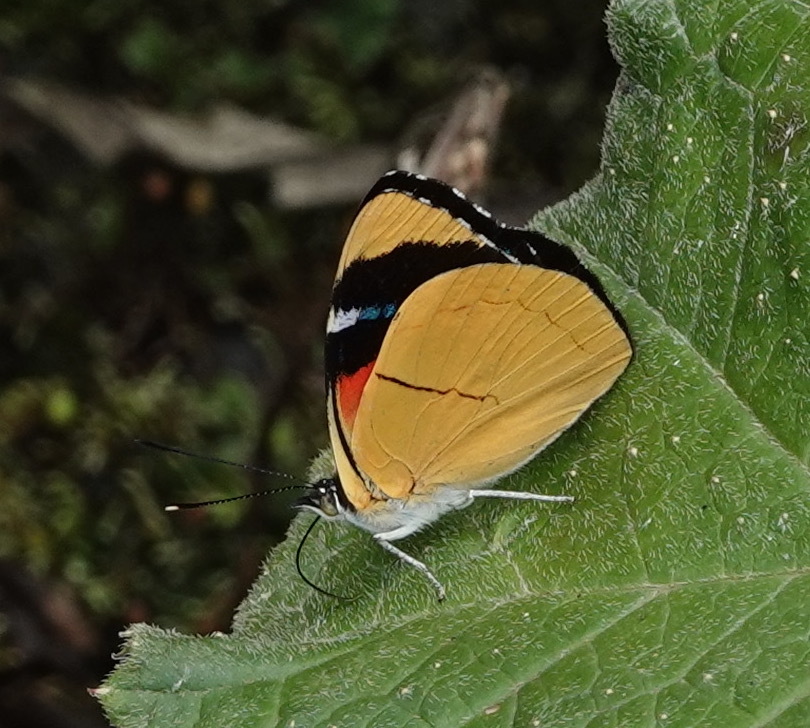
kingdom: Animalia
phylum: Arthropoda
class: Insecta
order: Lepidoptera
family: Nymphalidae
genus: Perisama
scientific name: Perisama comnena
